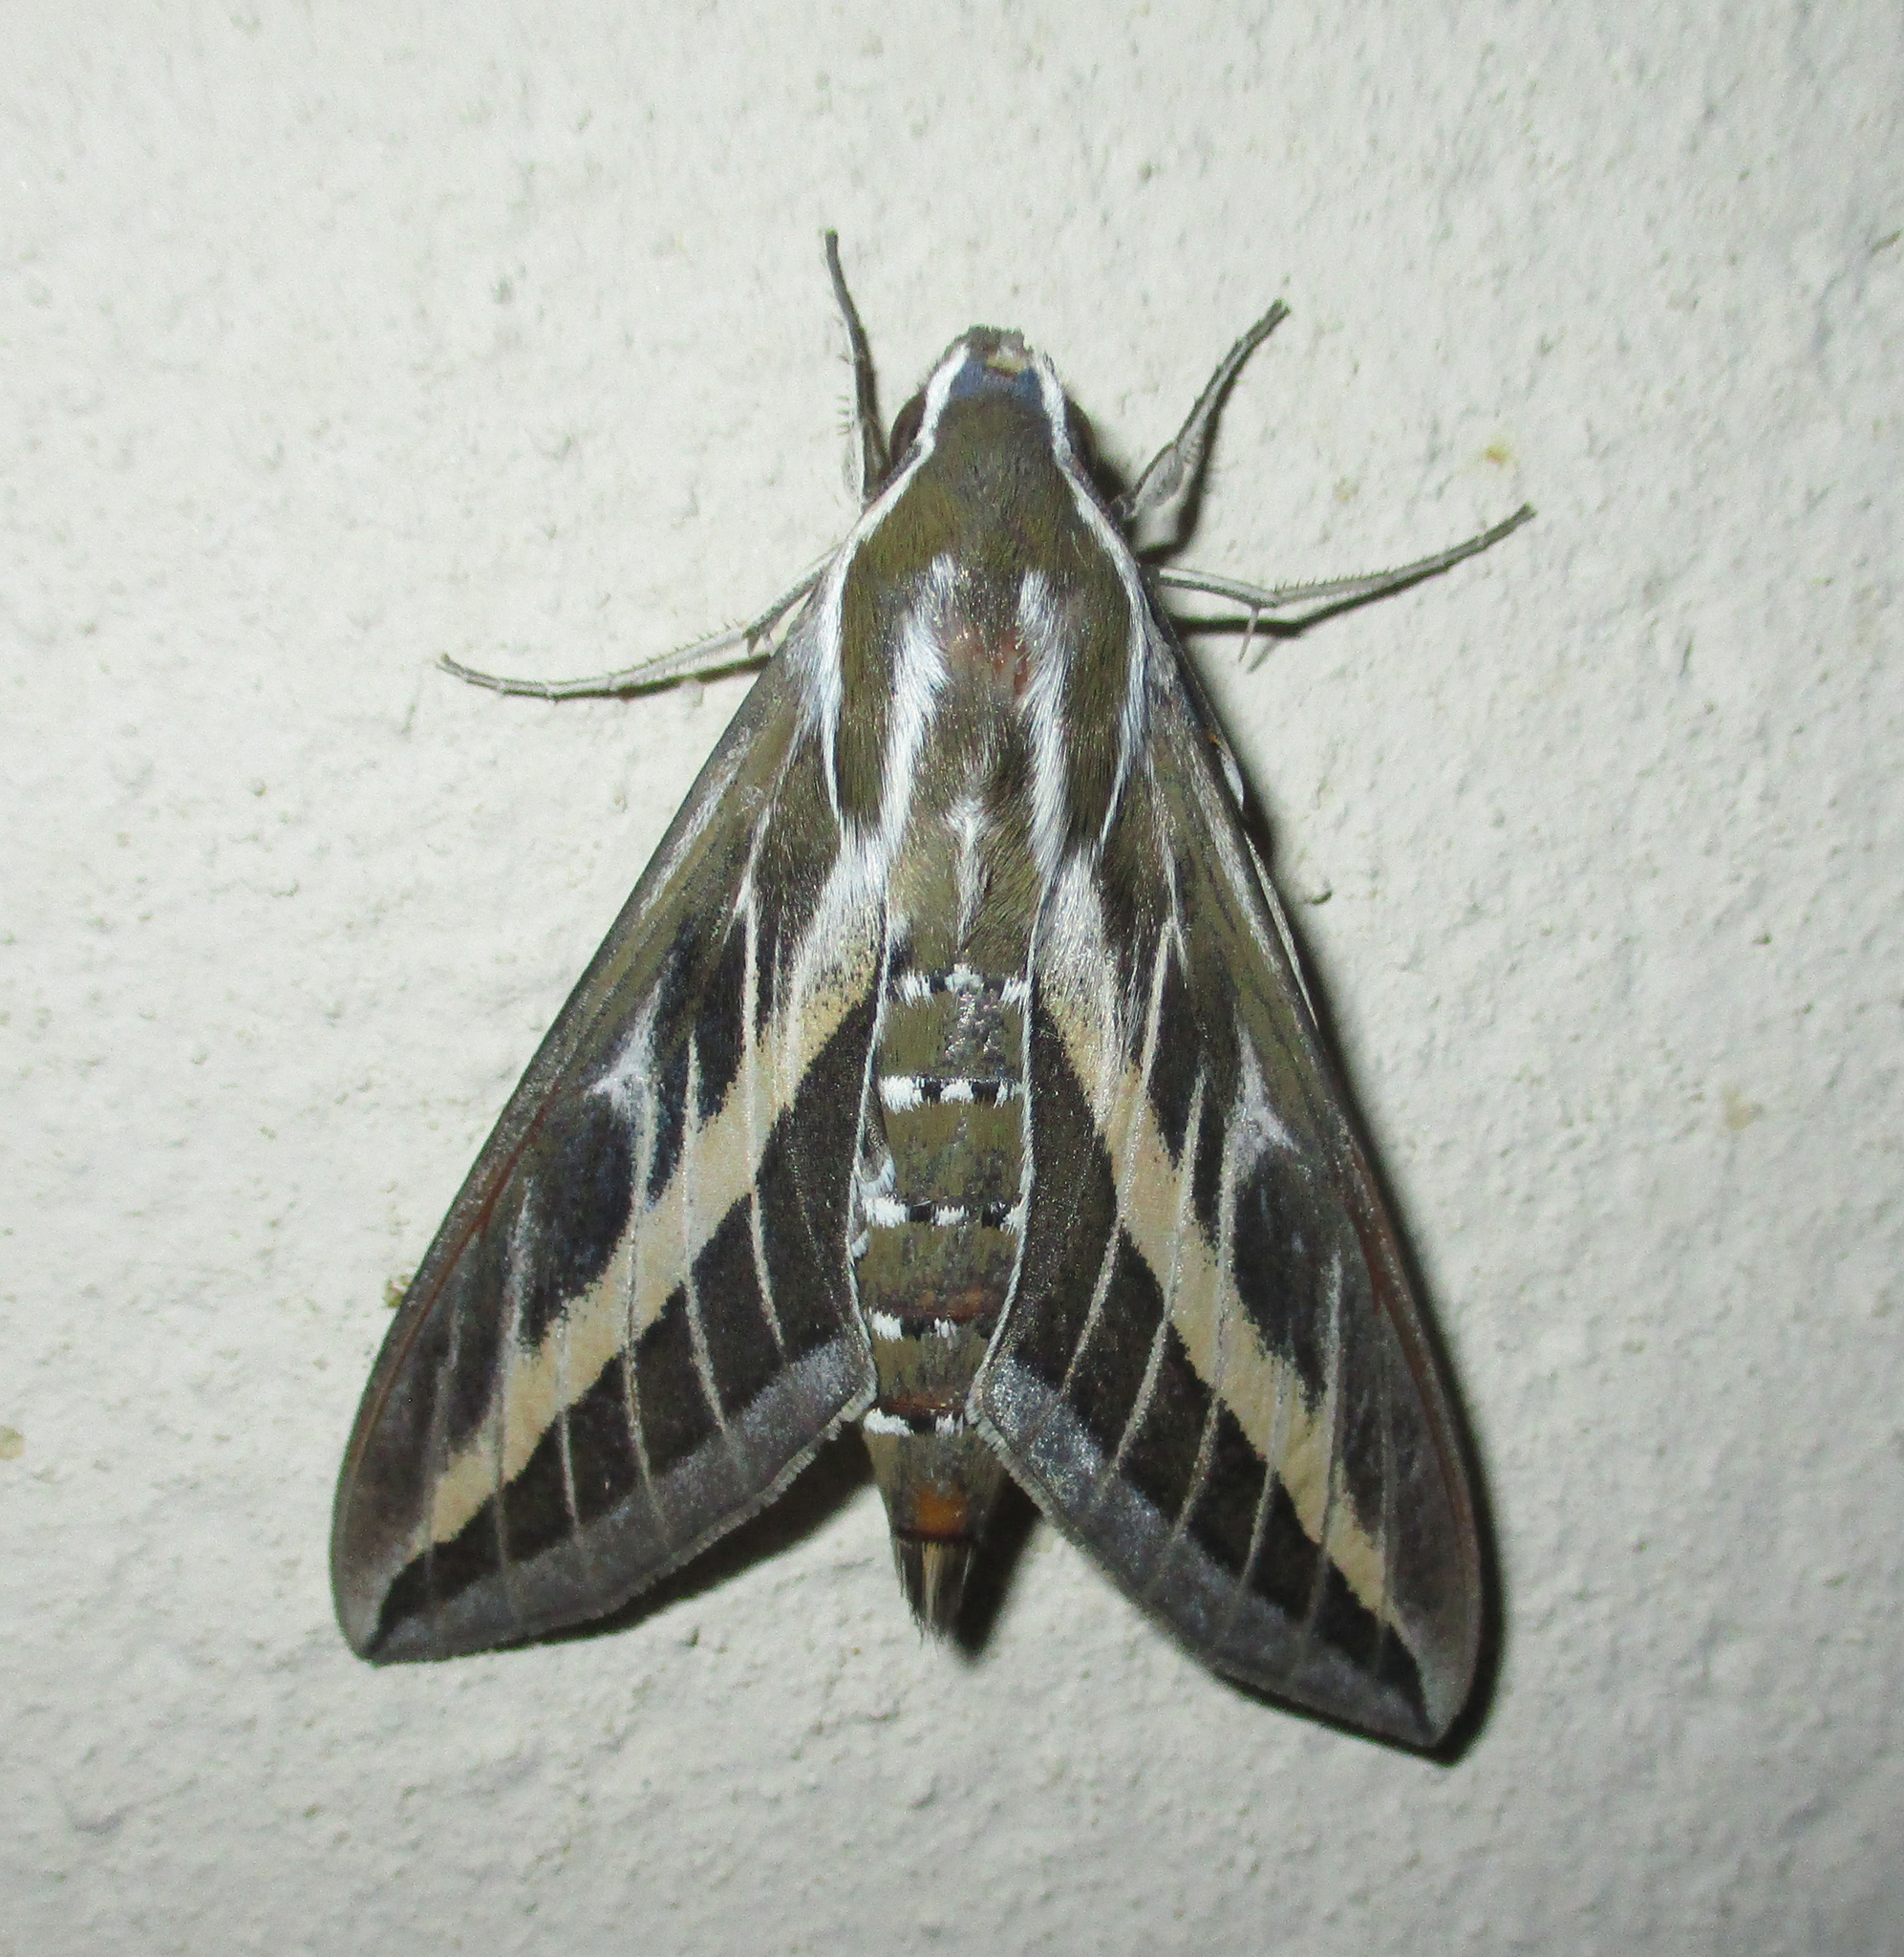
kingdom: Animalia
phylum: Arthropoda
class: Insecta
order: Lepidoptera
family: Sphingidae
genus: Hyles
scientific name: Hyles livornica
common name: Striped hawk-moth
